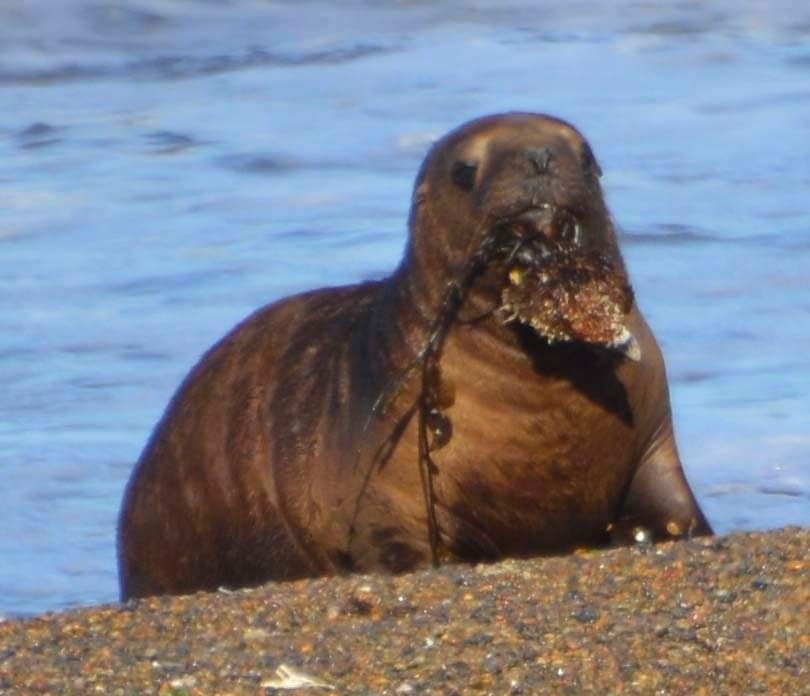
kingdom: Animalia
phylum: Chordata
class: Mammalia
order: Carnivora
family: Otariidae
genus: Otaria
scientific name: Otaria byronia
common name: South american sea lion
